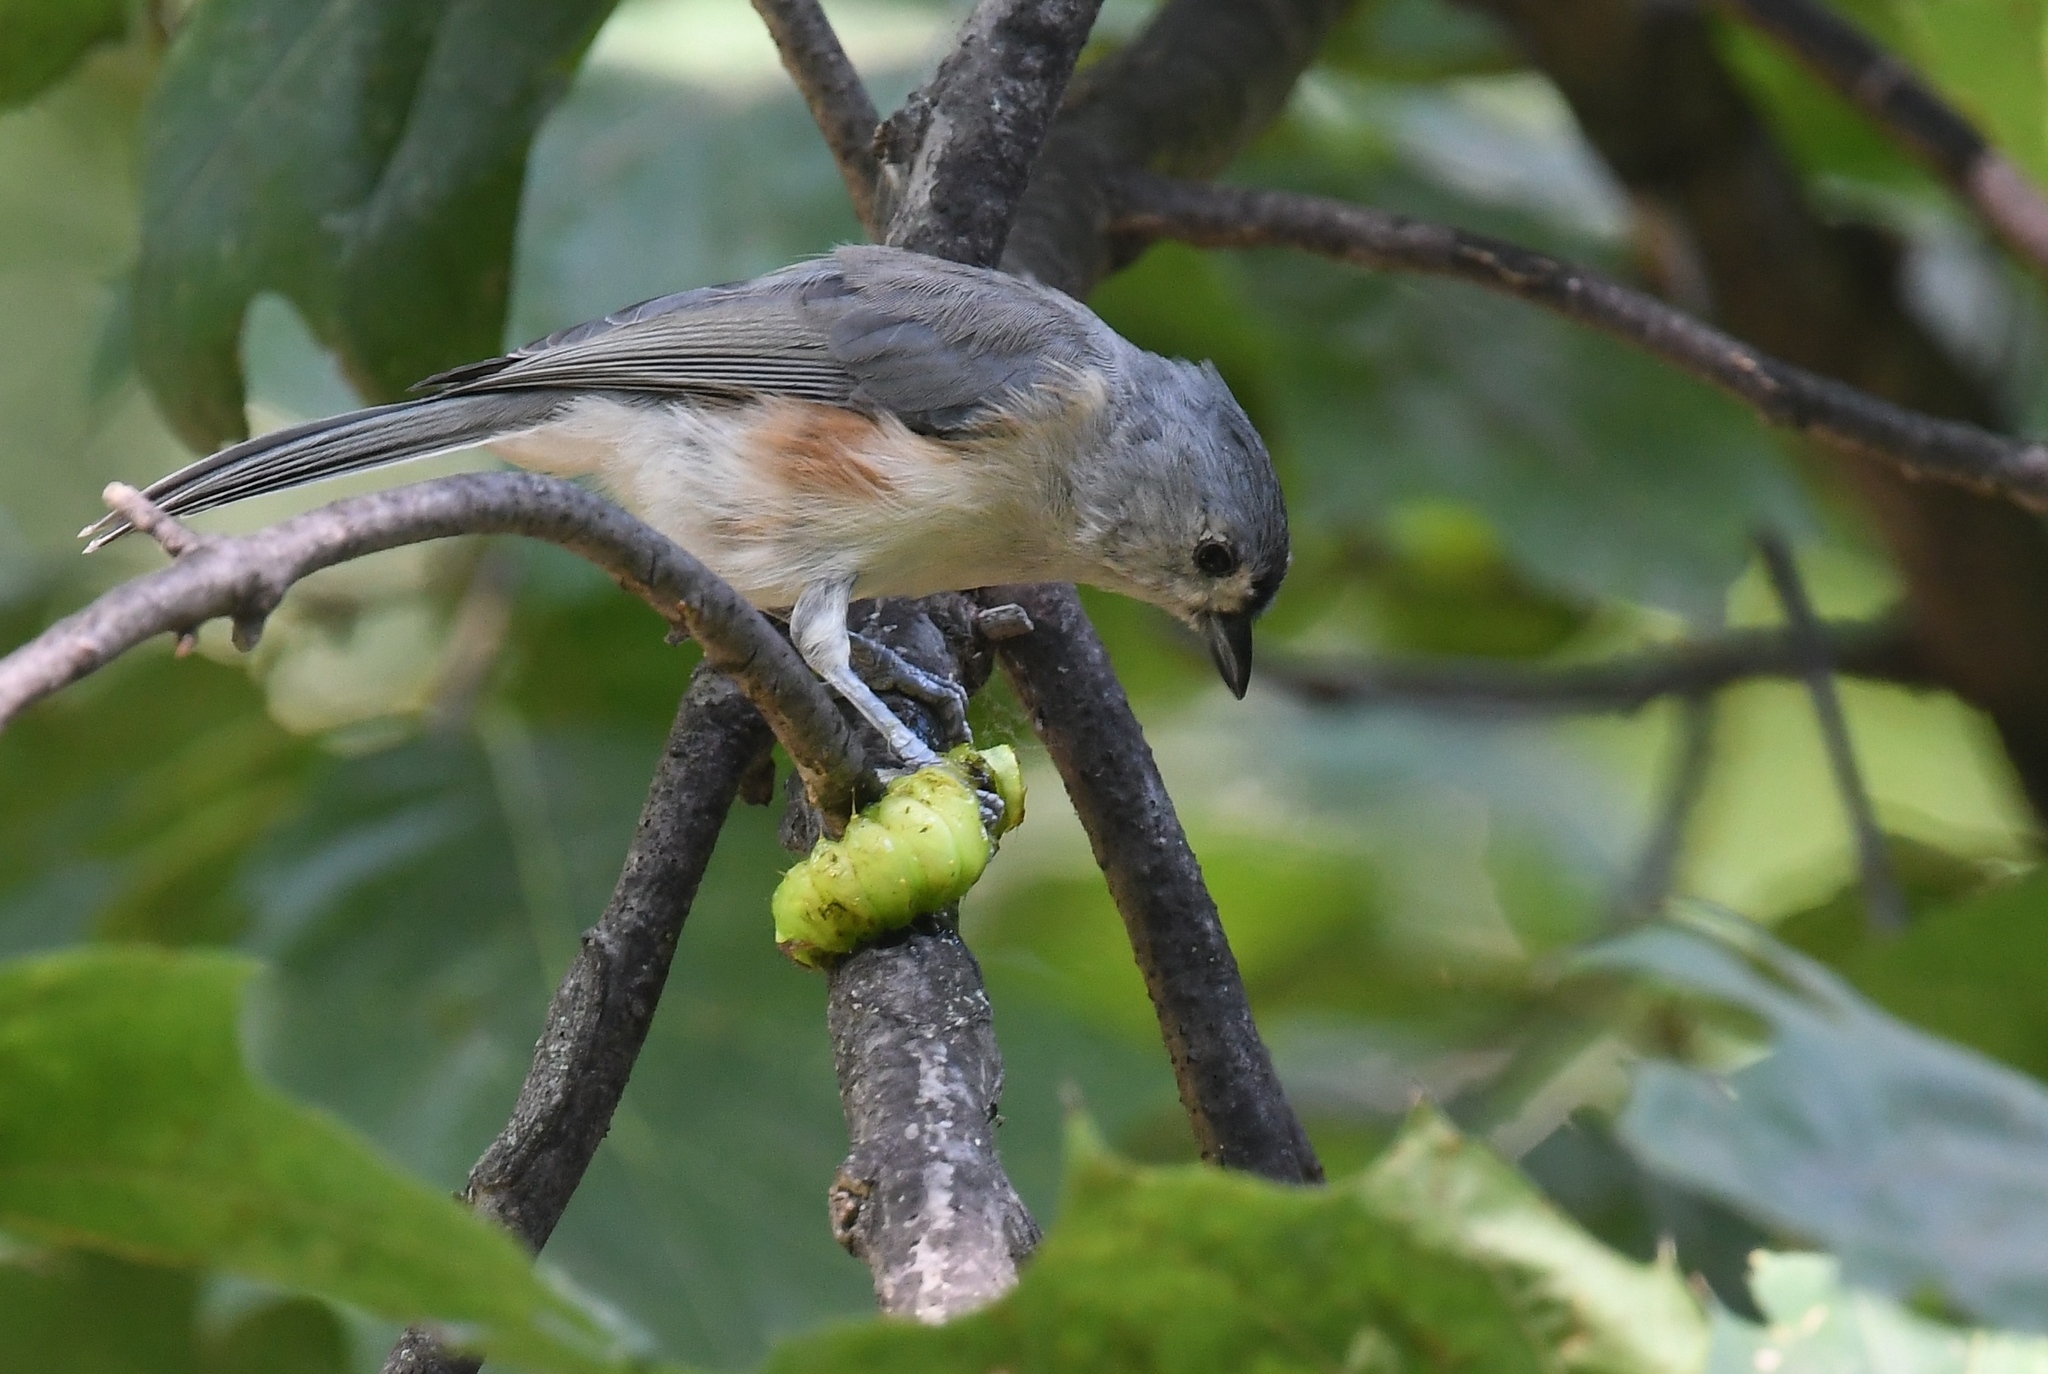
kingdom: Animalia
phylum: Chordata
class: Aves
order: Passeriformes
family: Paridae
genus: Baeolophus
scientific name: Baeolophus bicolor
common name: Tufted titmouse
